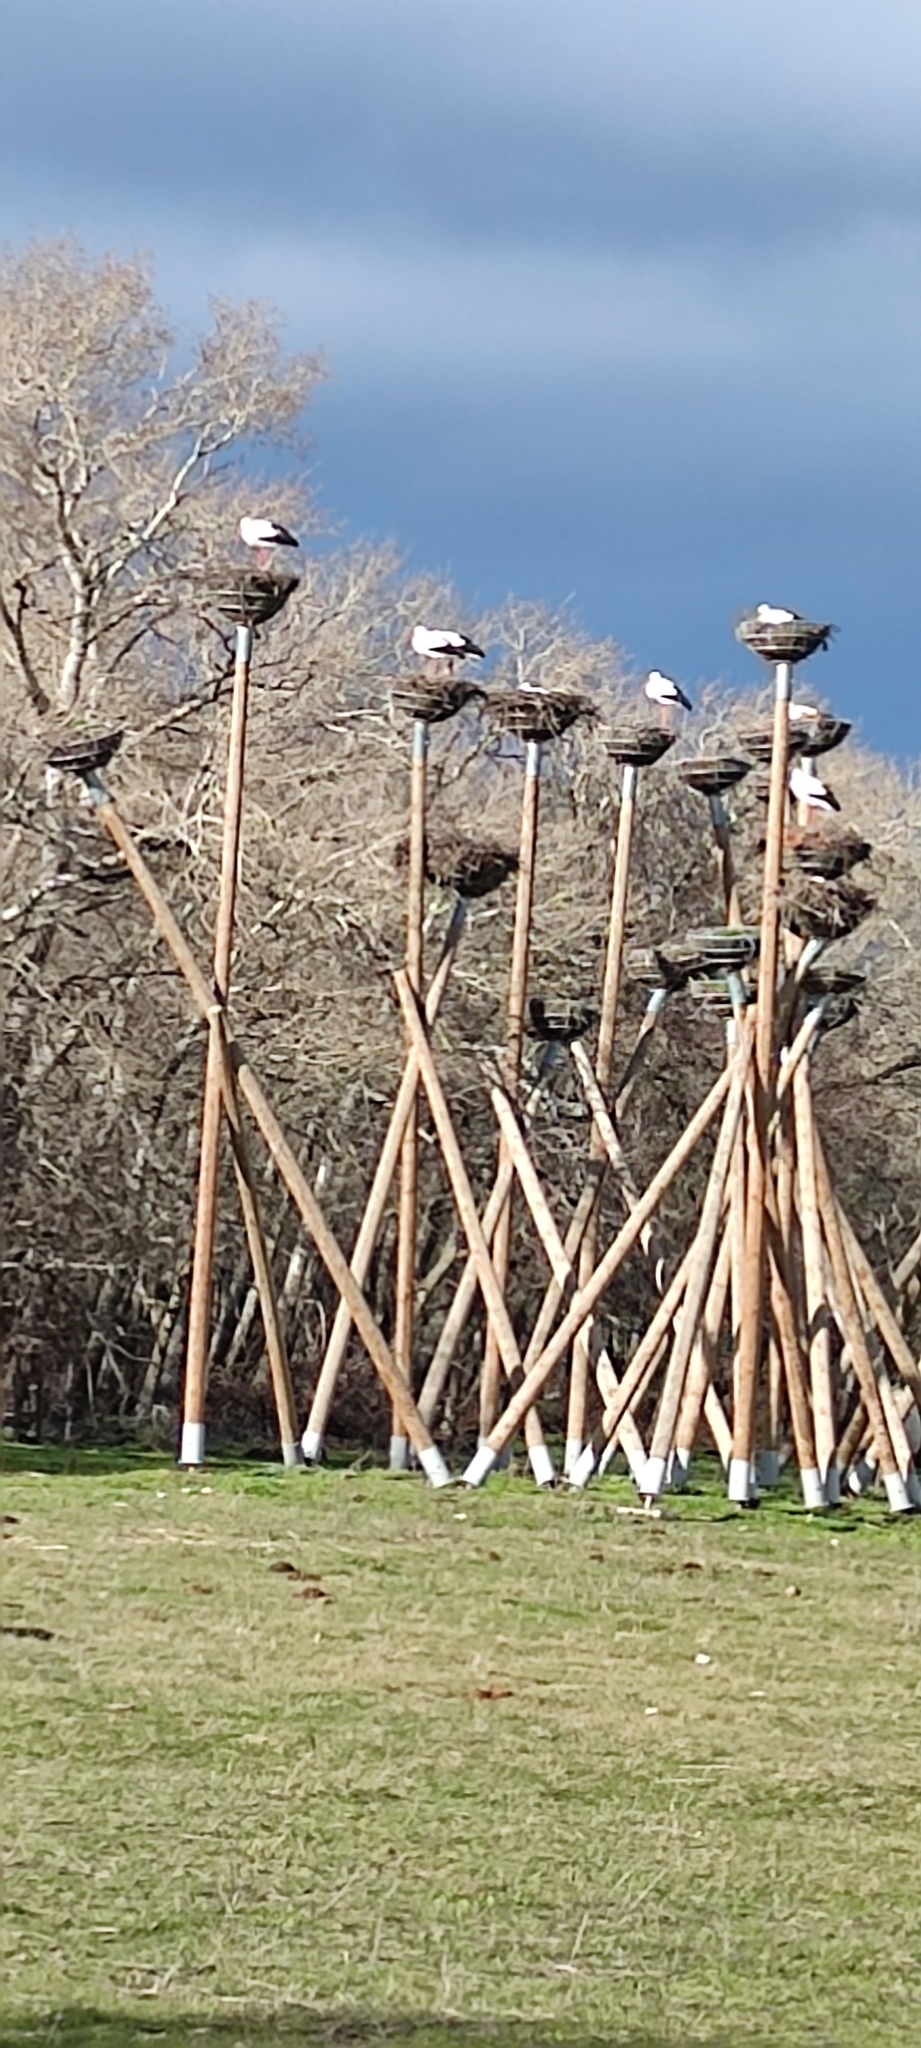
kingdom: Animalia
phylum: Chordata
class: Aves
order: Ciconiiformes
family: Ciconiidae
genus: Ciconia
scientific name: Ciconia ciconia
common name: White stork
